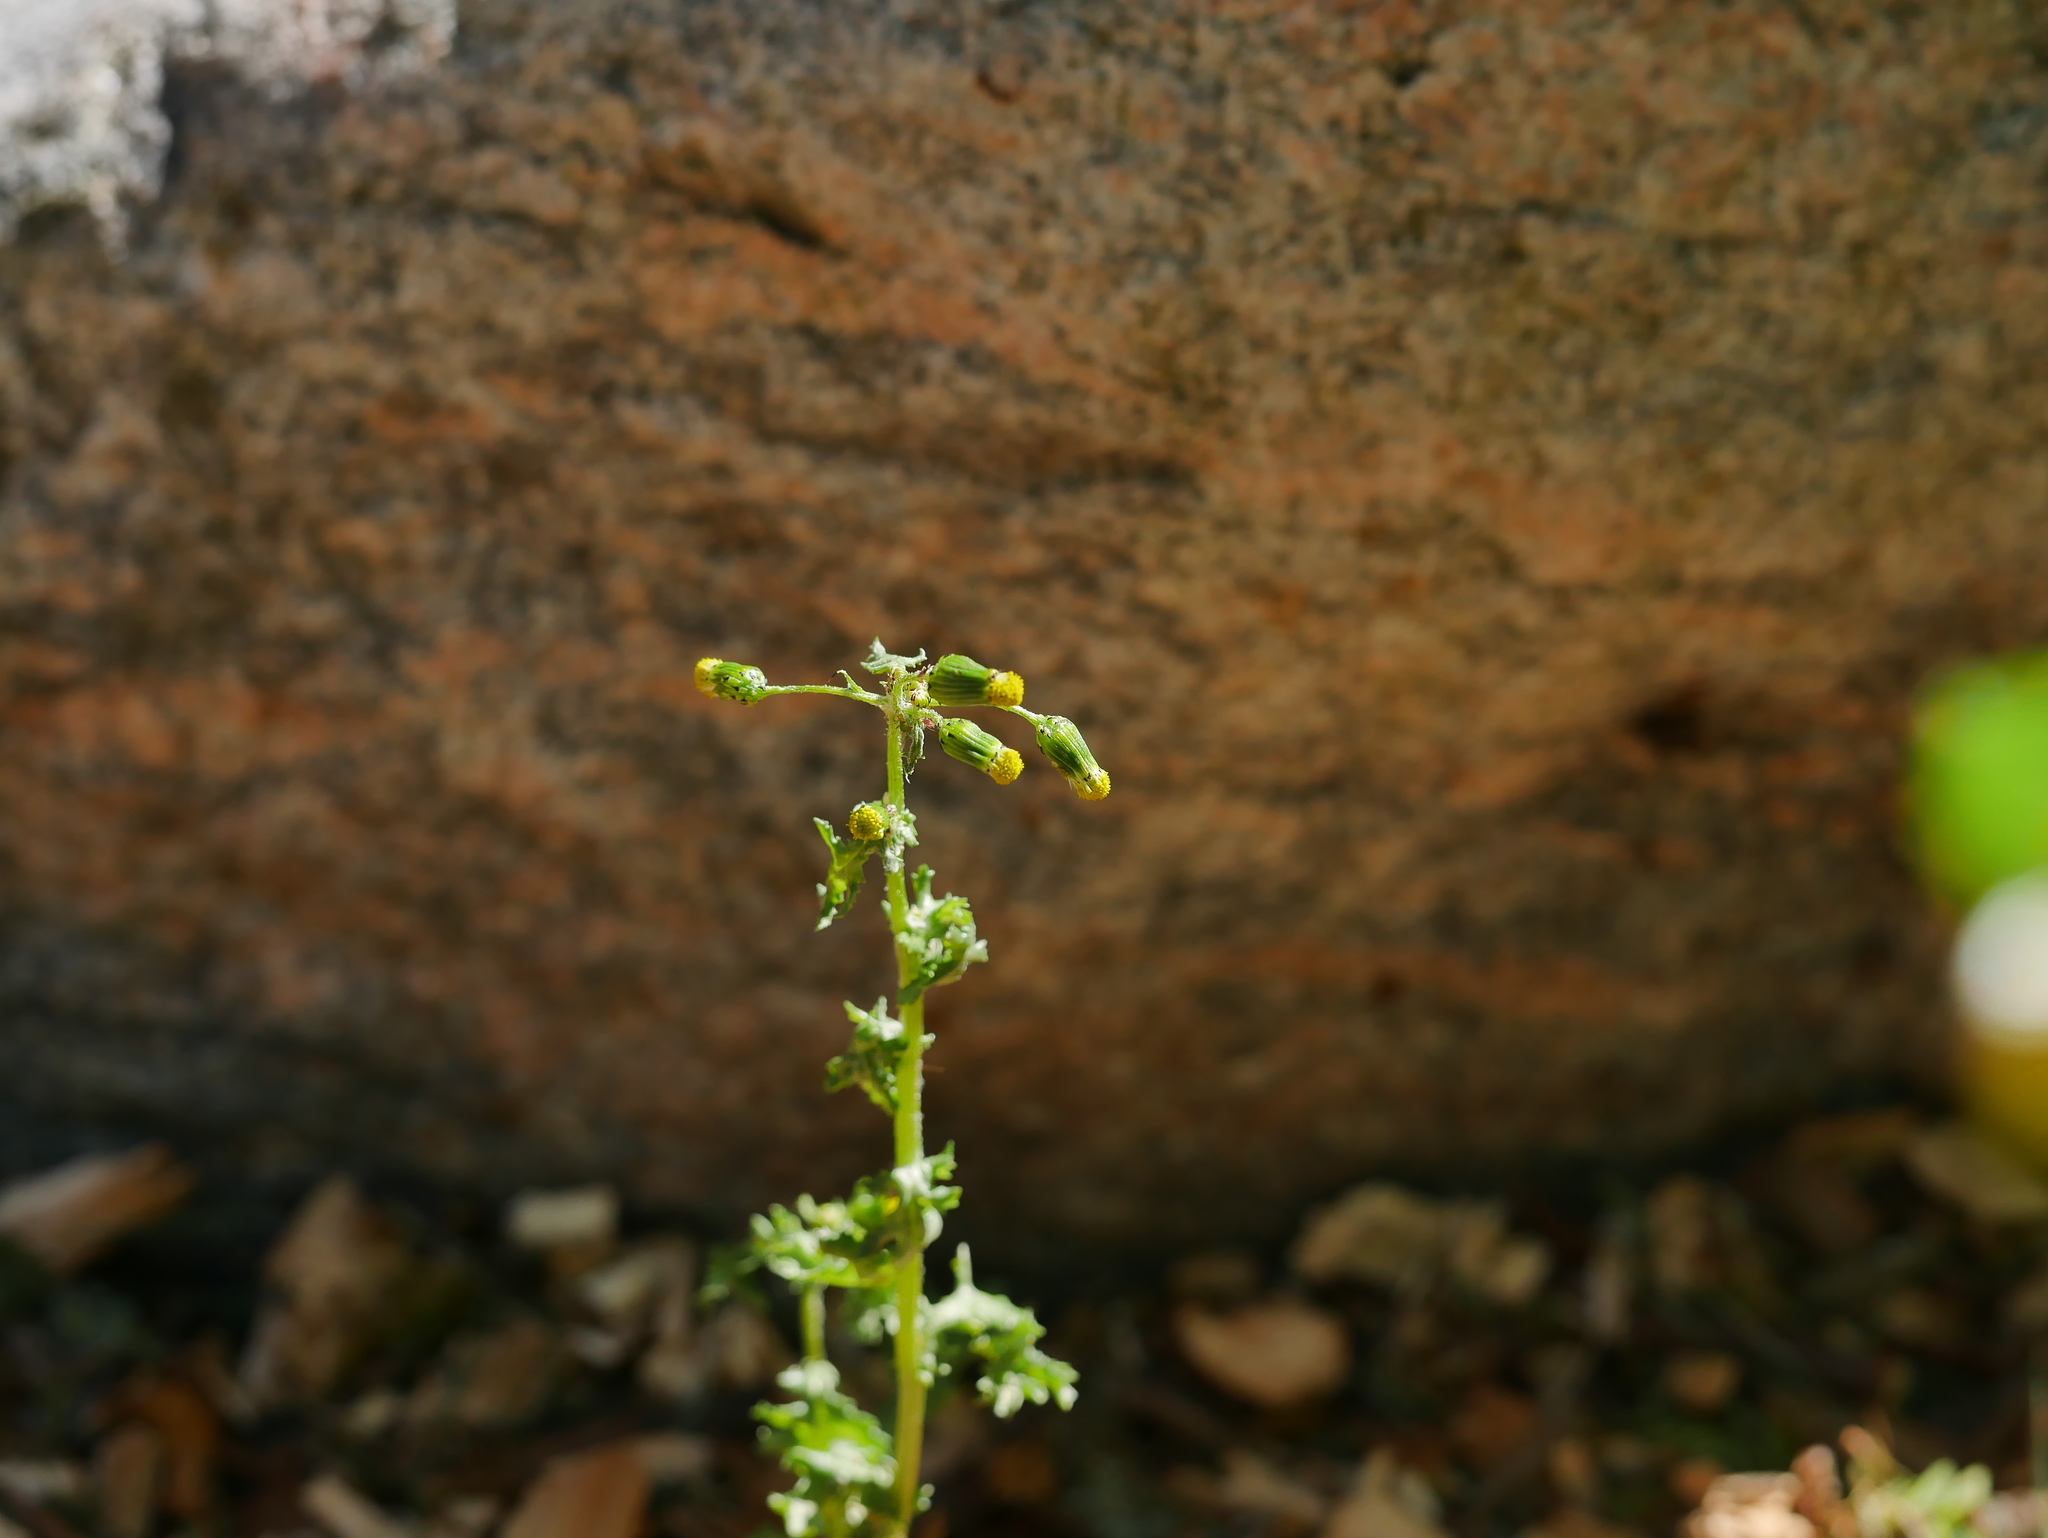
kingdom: Plantae
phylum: Tracheophyta
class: Magnoliopsida
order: Asterales
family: Asteraceae
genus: Senecio
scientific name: Senecio vulgaris
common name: Old-man-in-the-spring
